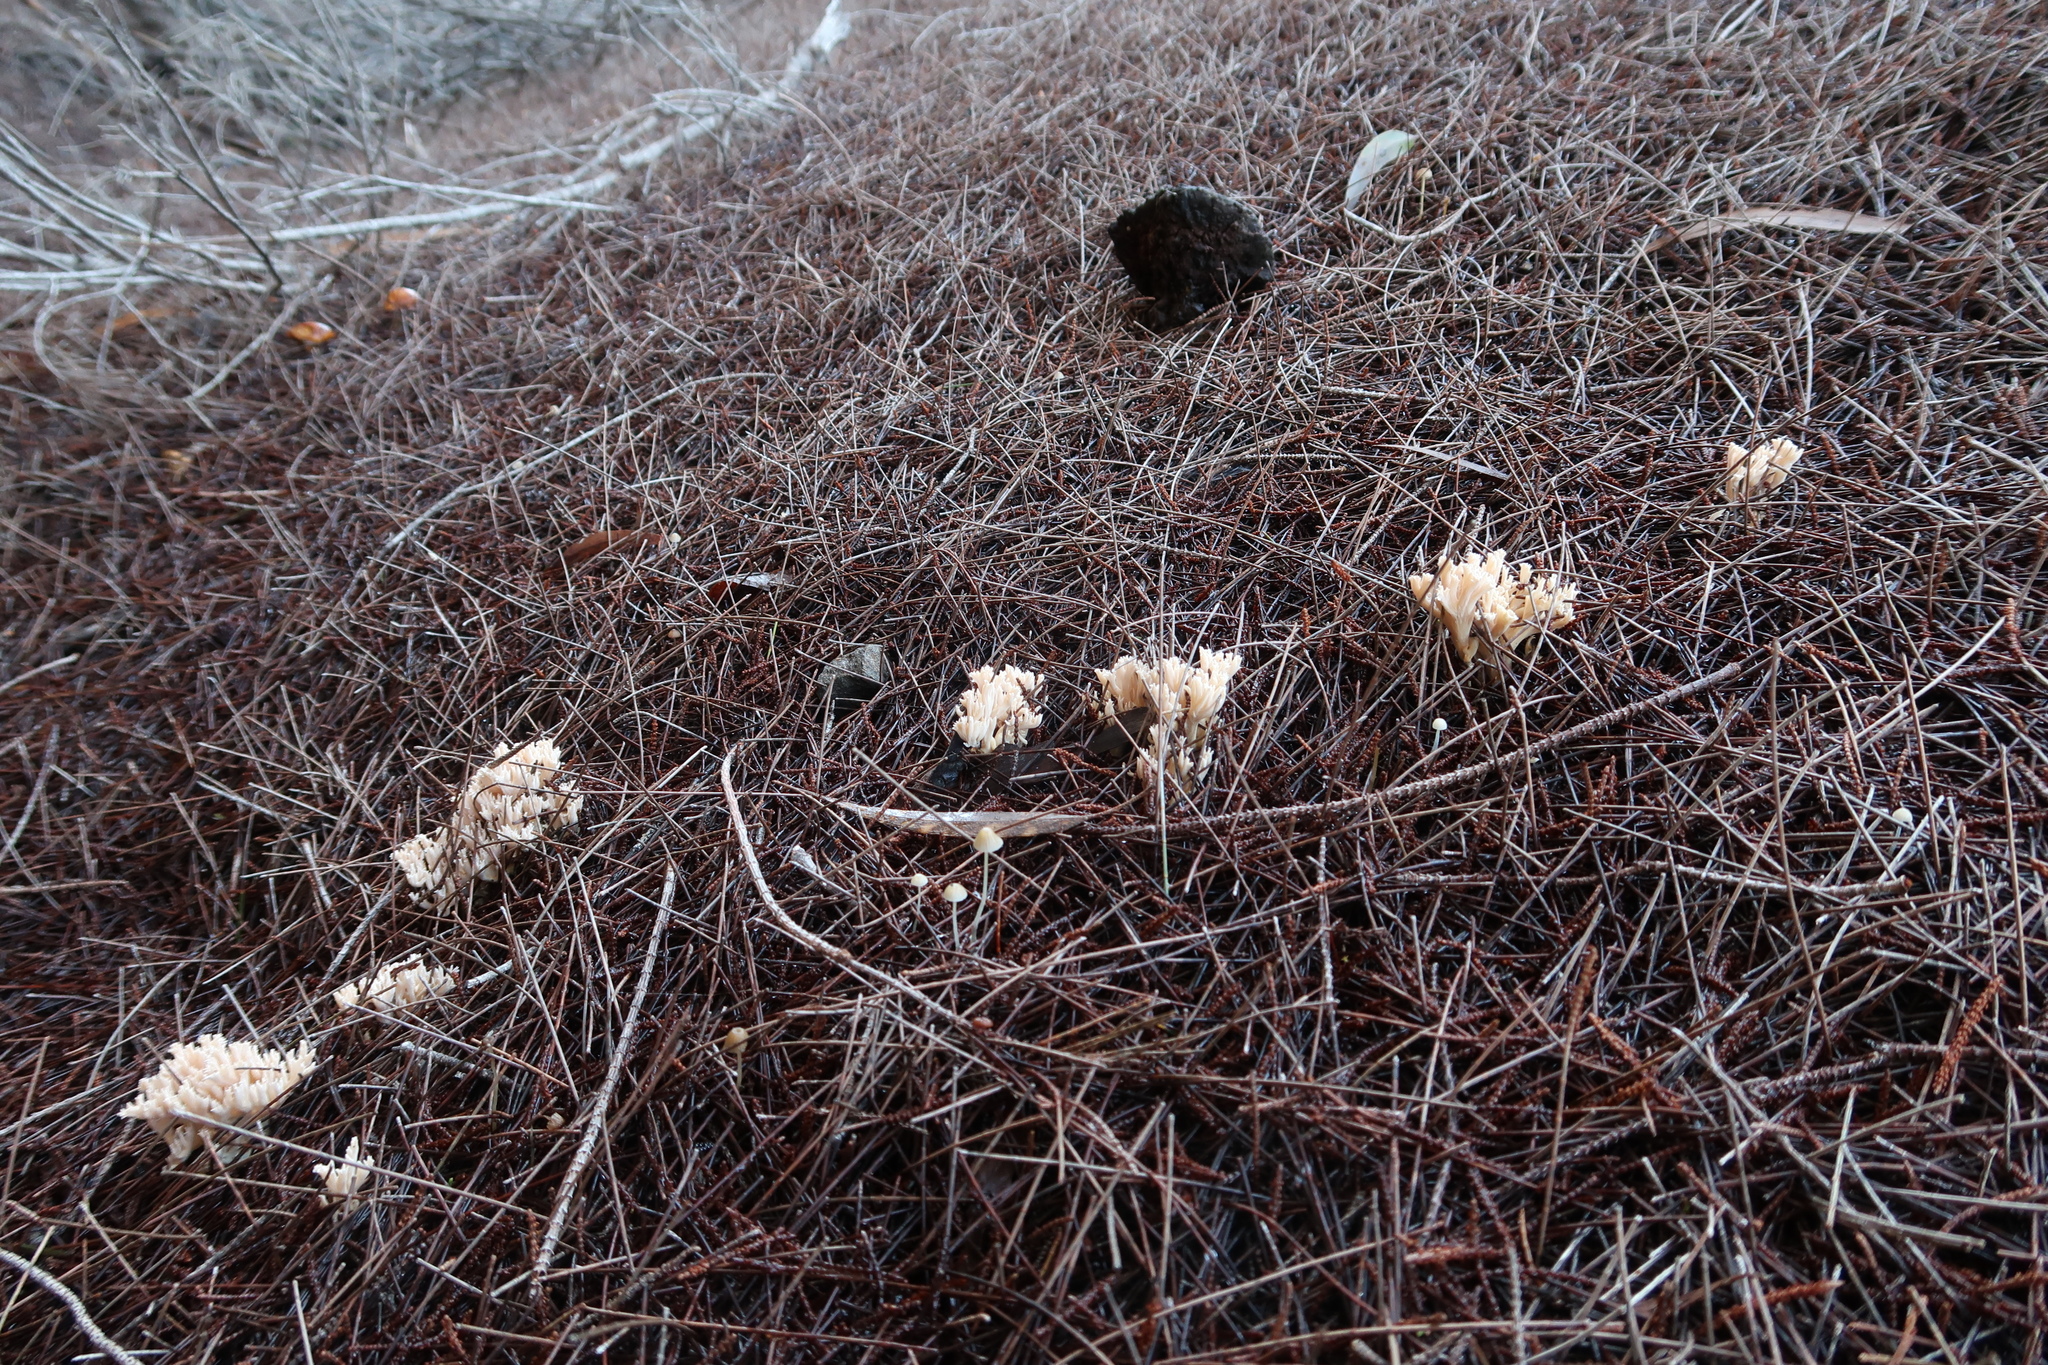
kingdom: Fungi
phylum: Basidiomycota
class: Agaricomycetes
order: Gomphales
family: Gomphaceae
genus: Ramaria
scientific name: Ramaria filicicola
